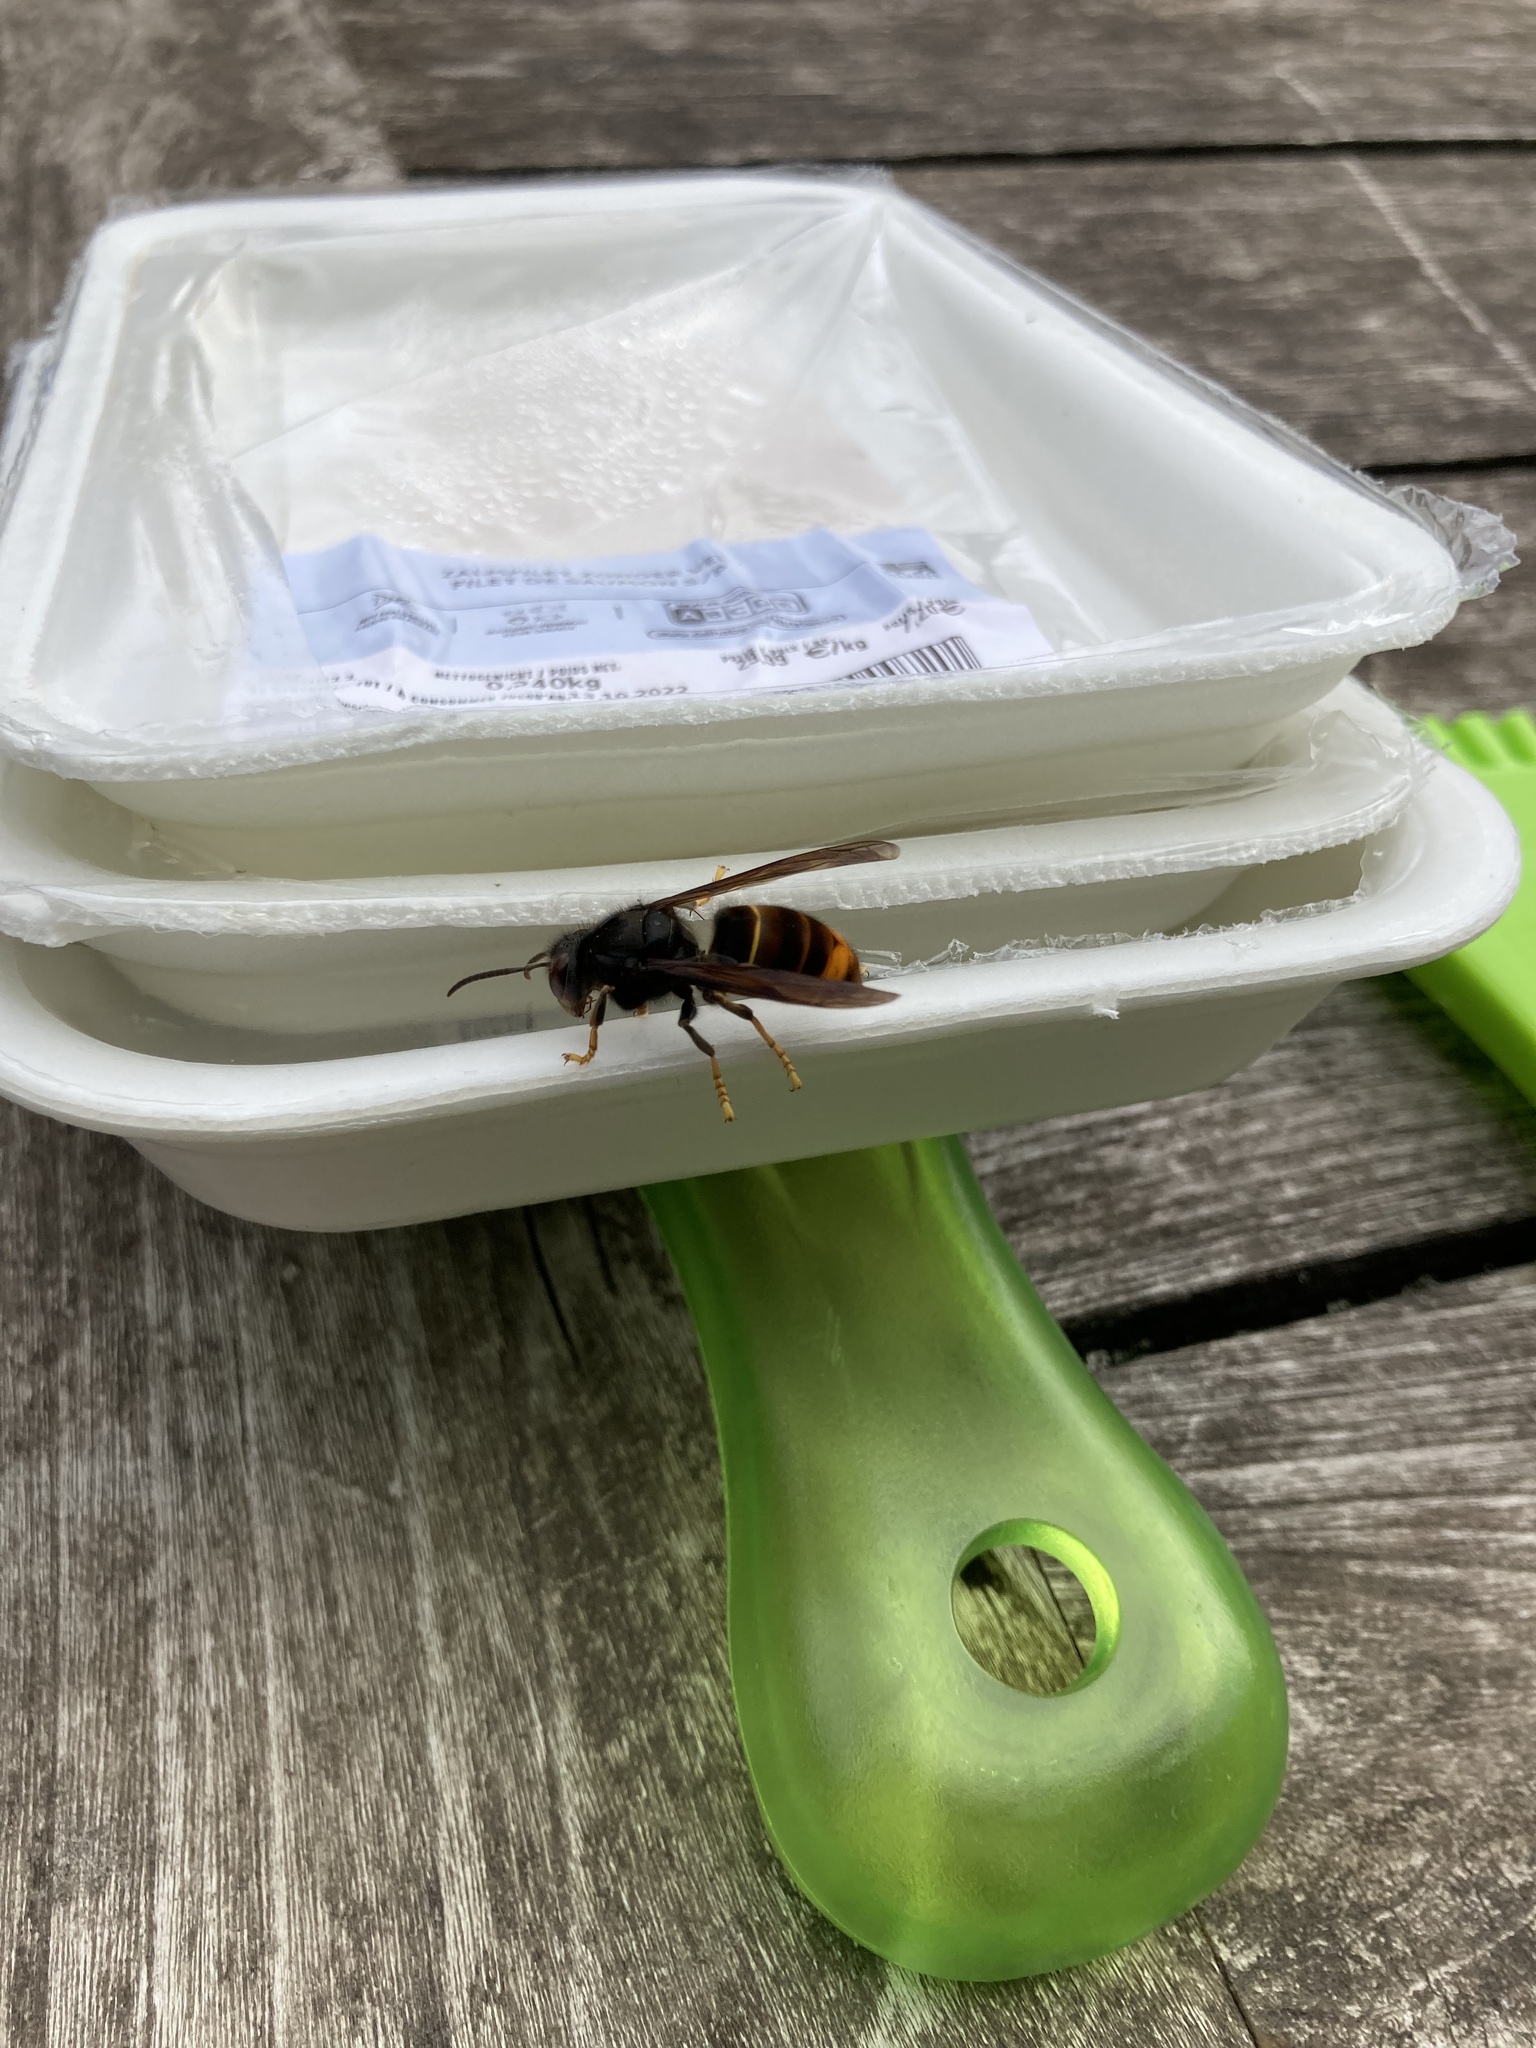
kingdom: Animalia
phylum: Arthropoda
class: Insecta
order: Hymenoptera
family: Vespidae
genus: Vespa
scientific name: Vespa velutina
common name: Asian hornet
